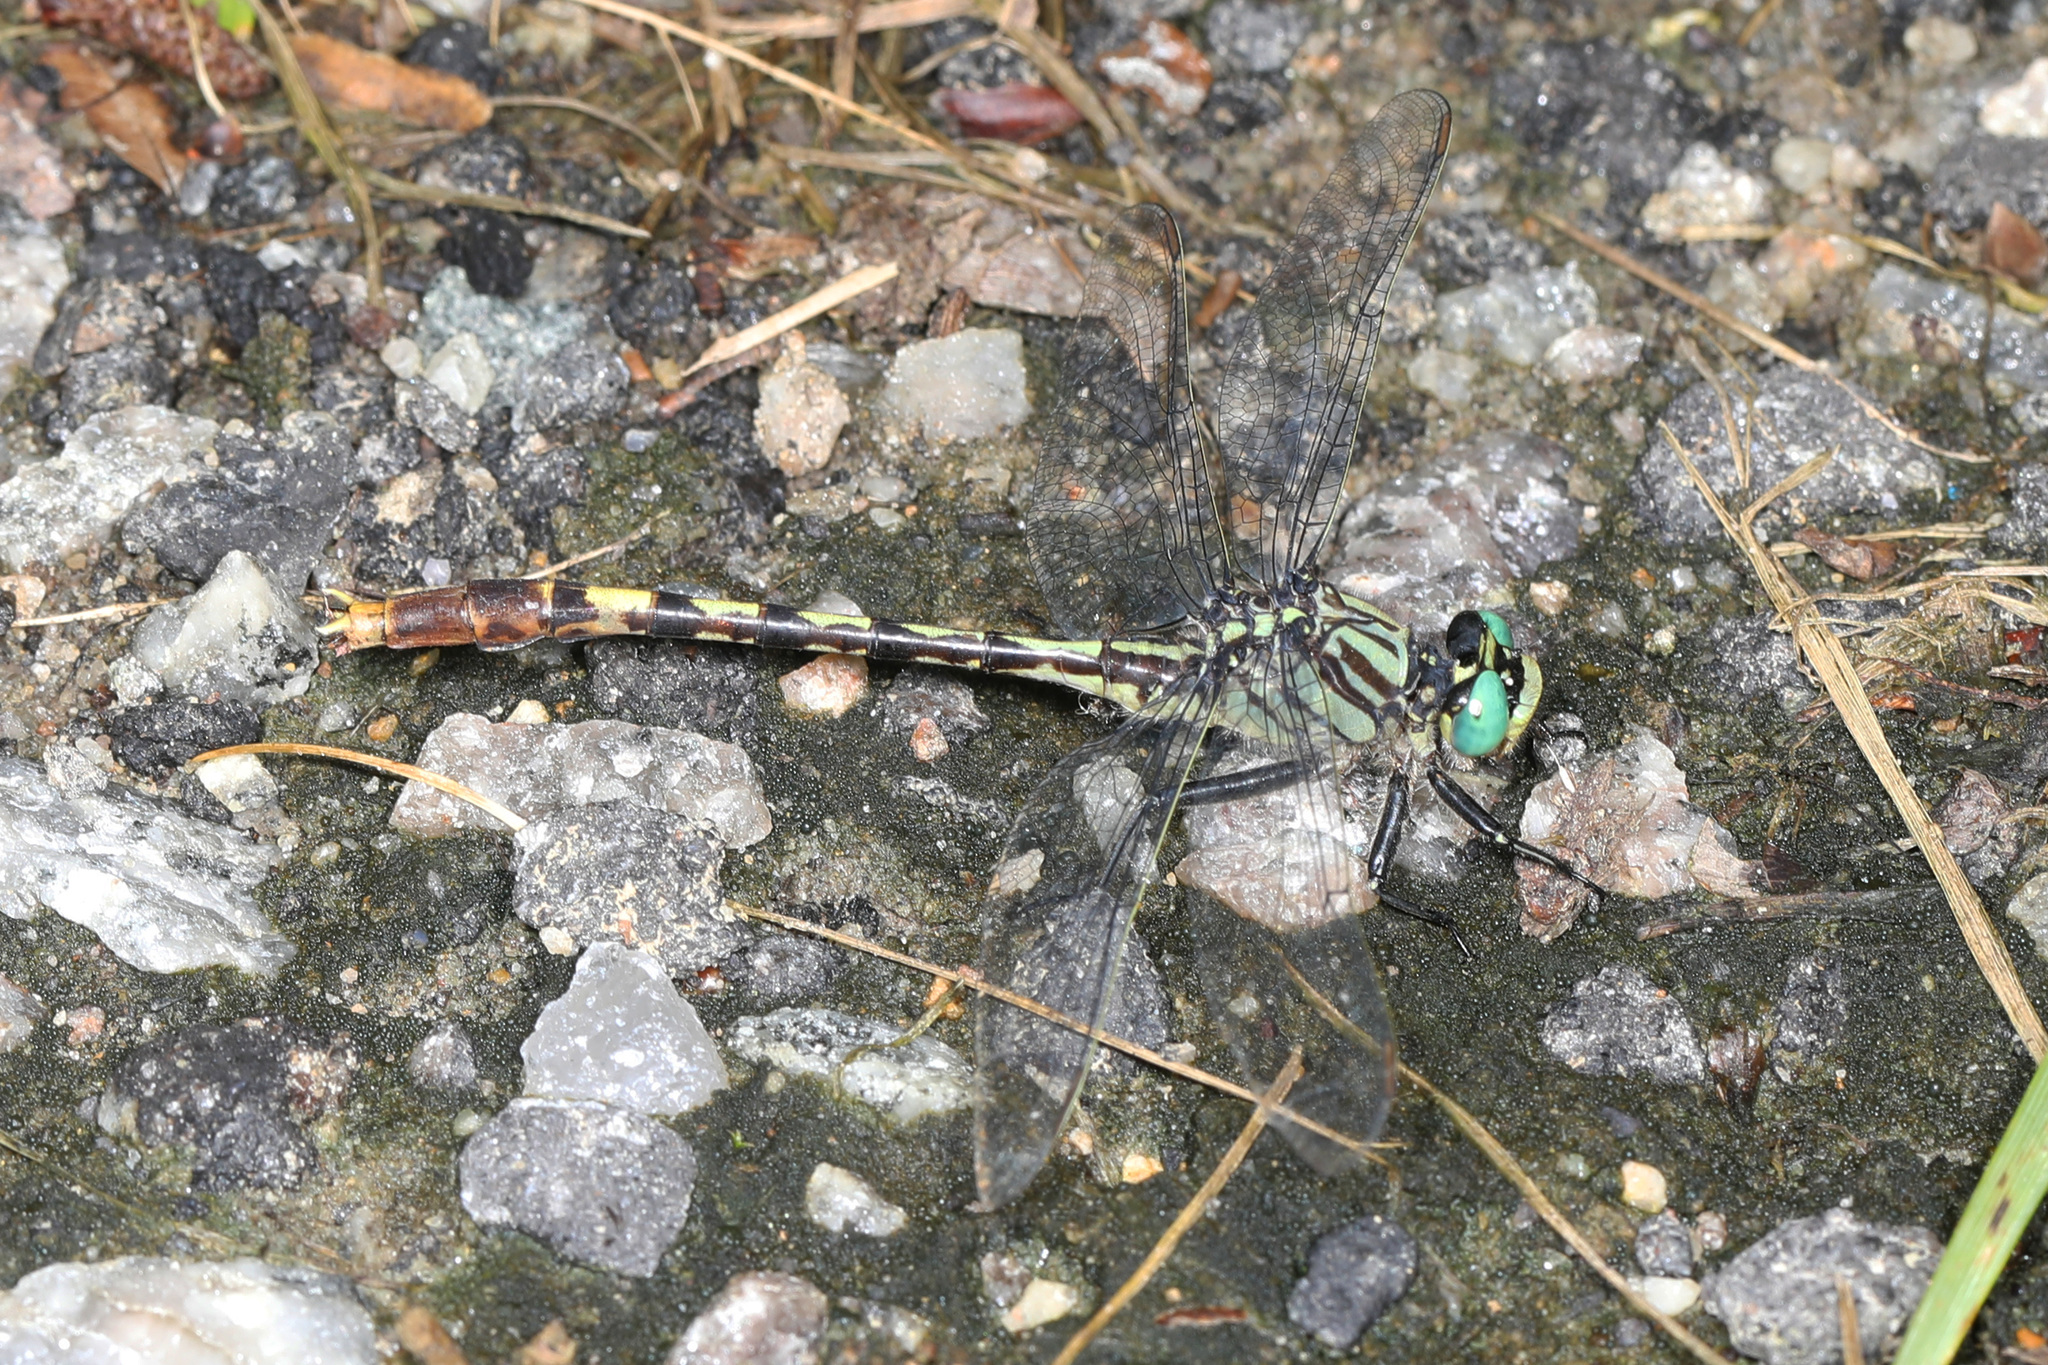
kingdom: Animalia
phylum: Arthropoda
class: Insecta
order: Odonata
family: Gomphidae
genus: Arigomphus
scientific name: Arigomphus villosipes
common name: Unicorn clubtail
